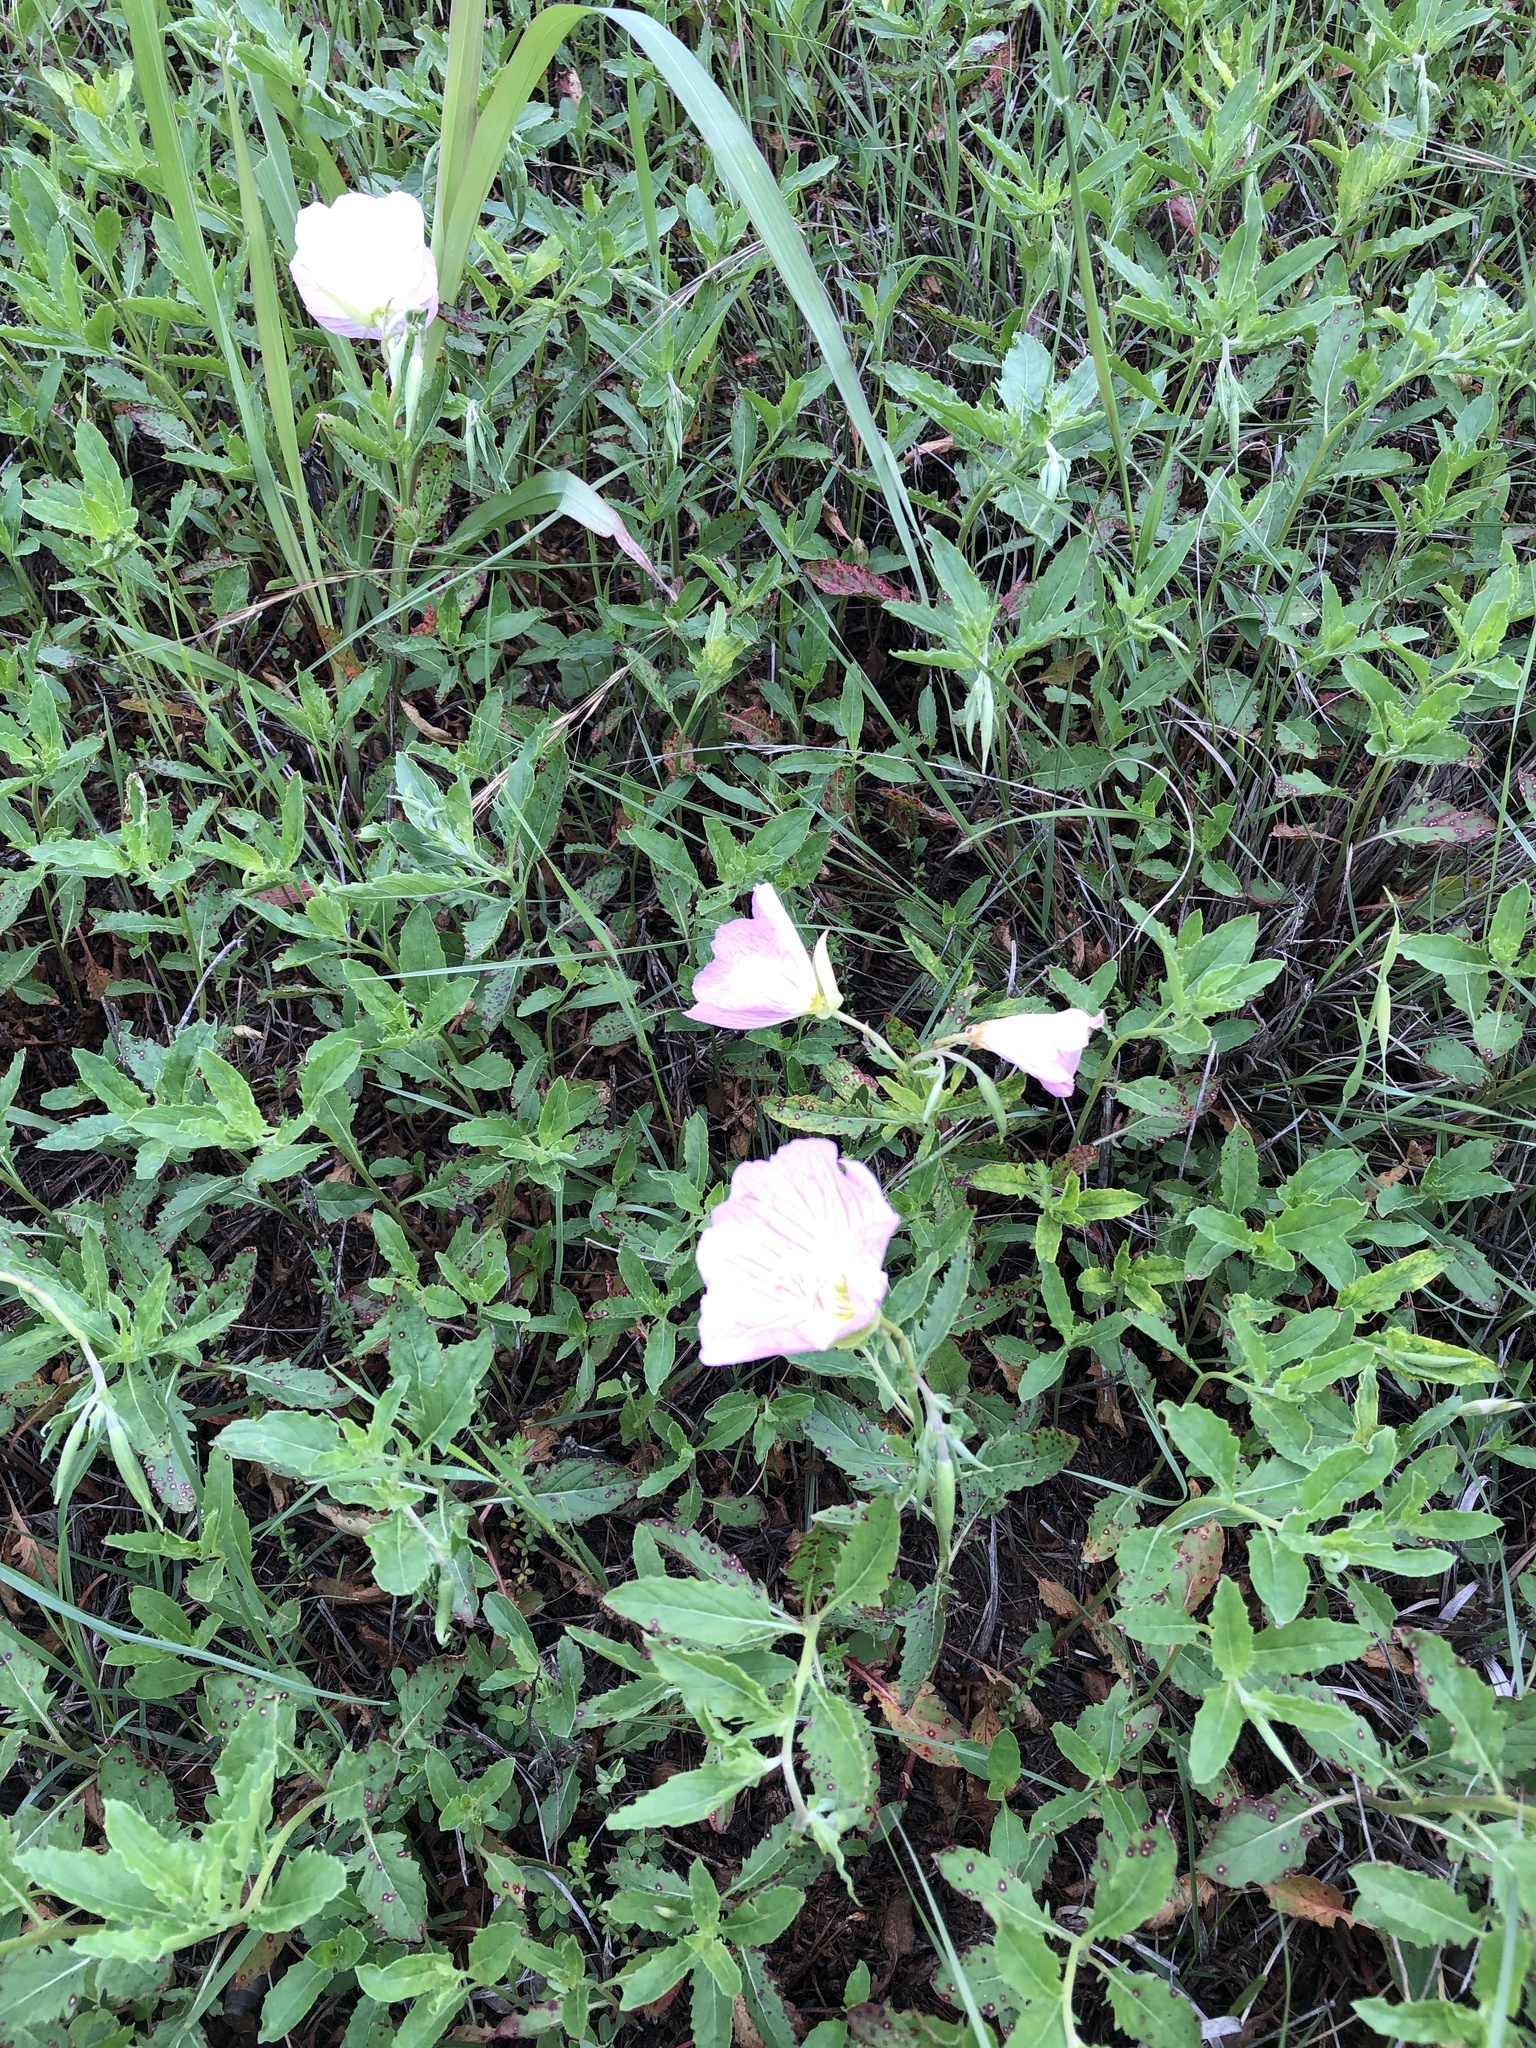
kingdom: Plantae
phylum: Tracheophyta
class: Magnoliopsida
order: Myrtales
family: Onagraceae
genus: Oenothera
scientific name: Oenothera speciosa
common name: White evening-primrose
